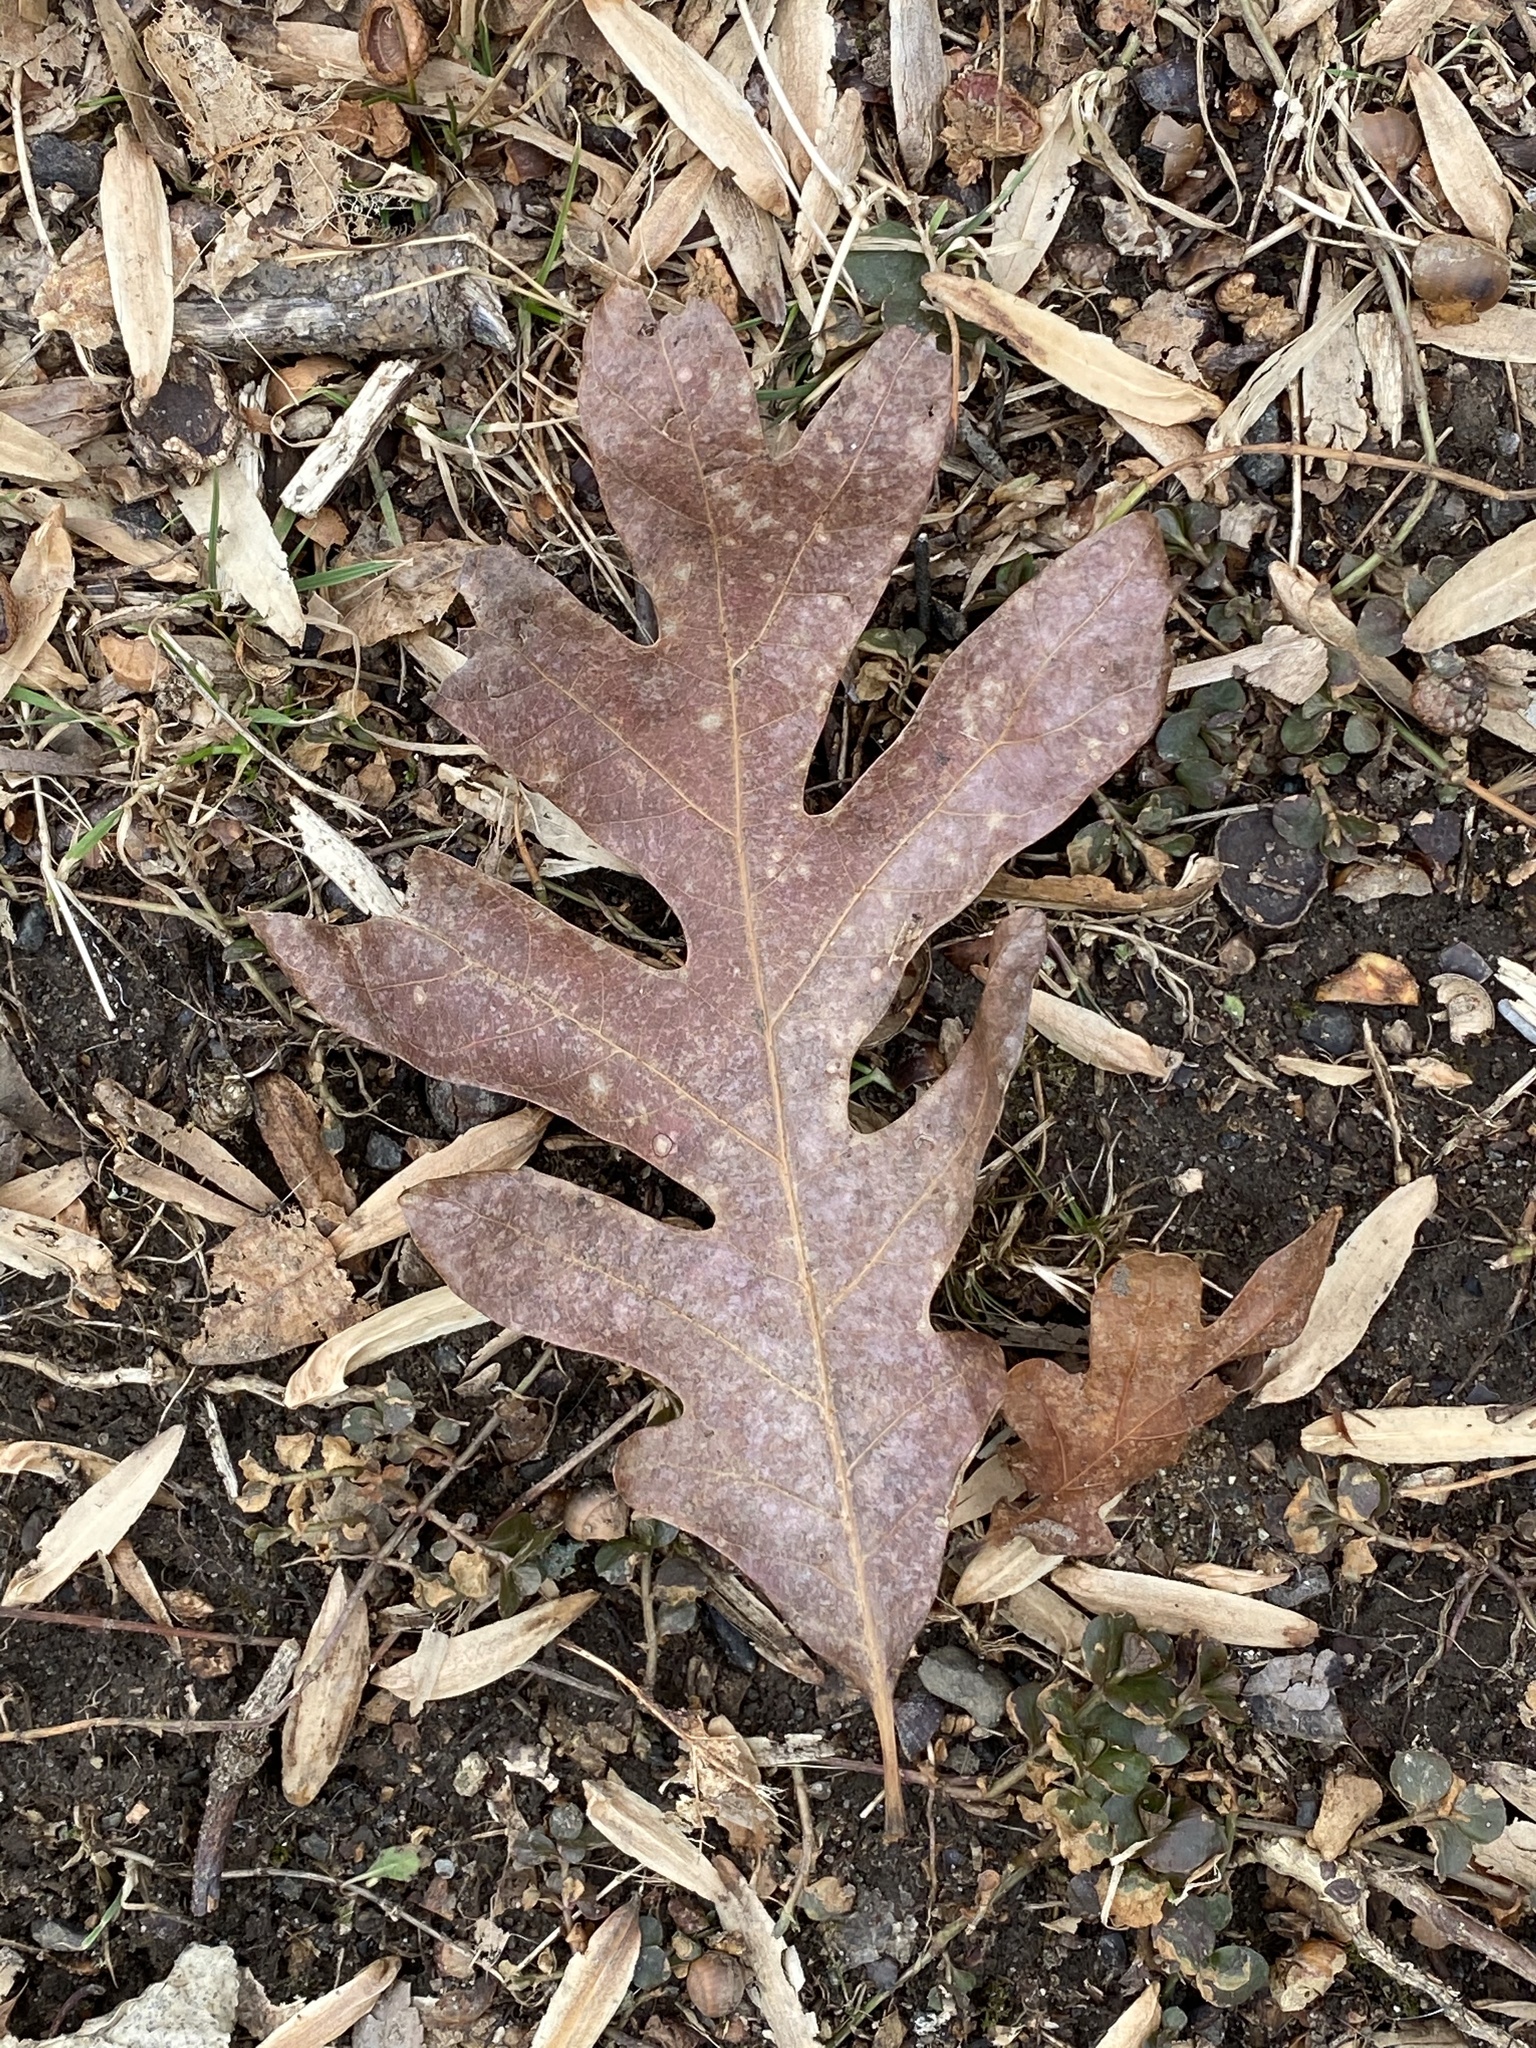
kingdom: Plantae
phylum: Tracheophyta
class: Magnoliopsida
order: Fagales
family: Fagaceae
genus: Quercus
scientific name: Quercus alba
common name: White oak
